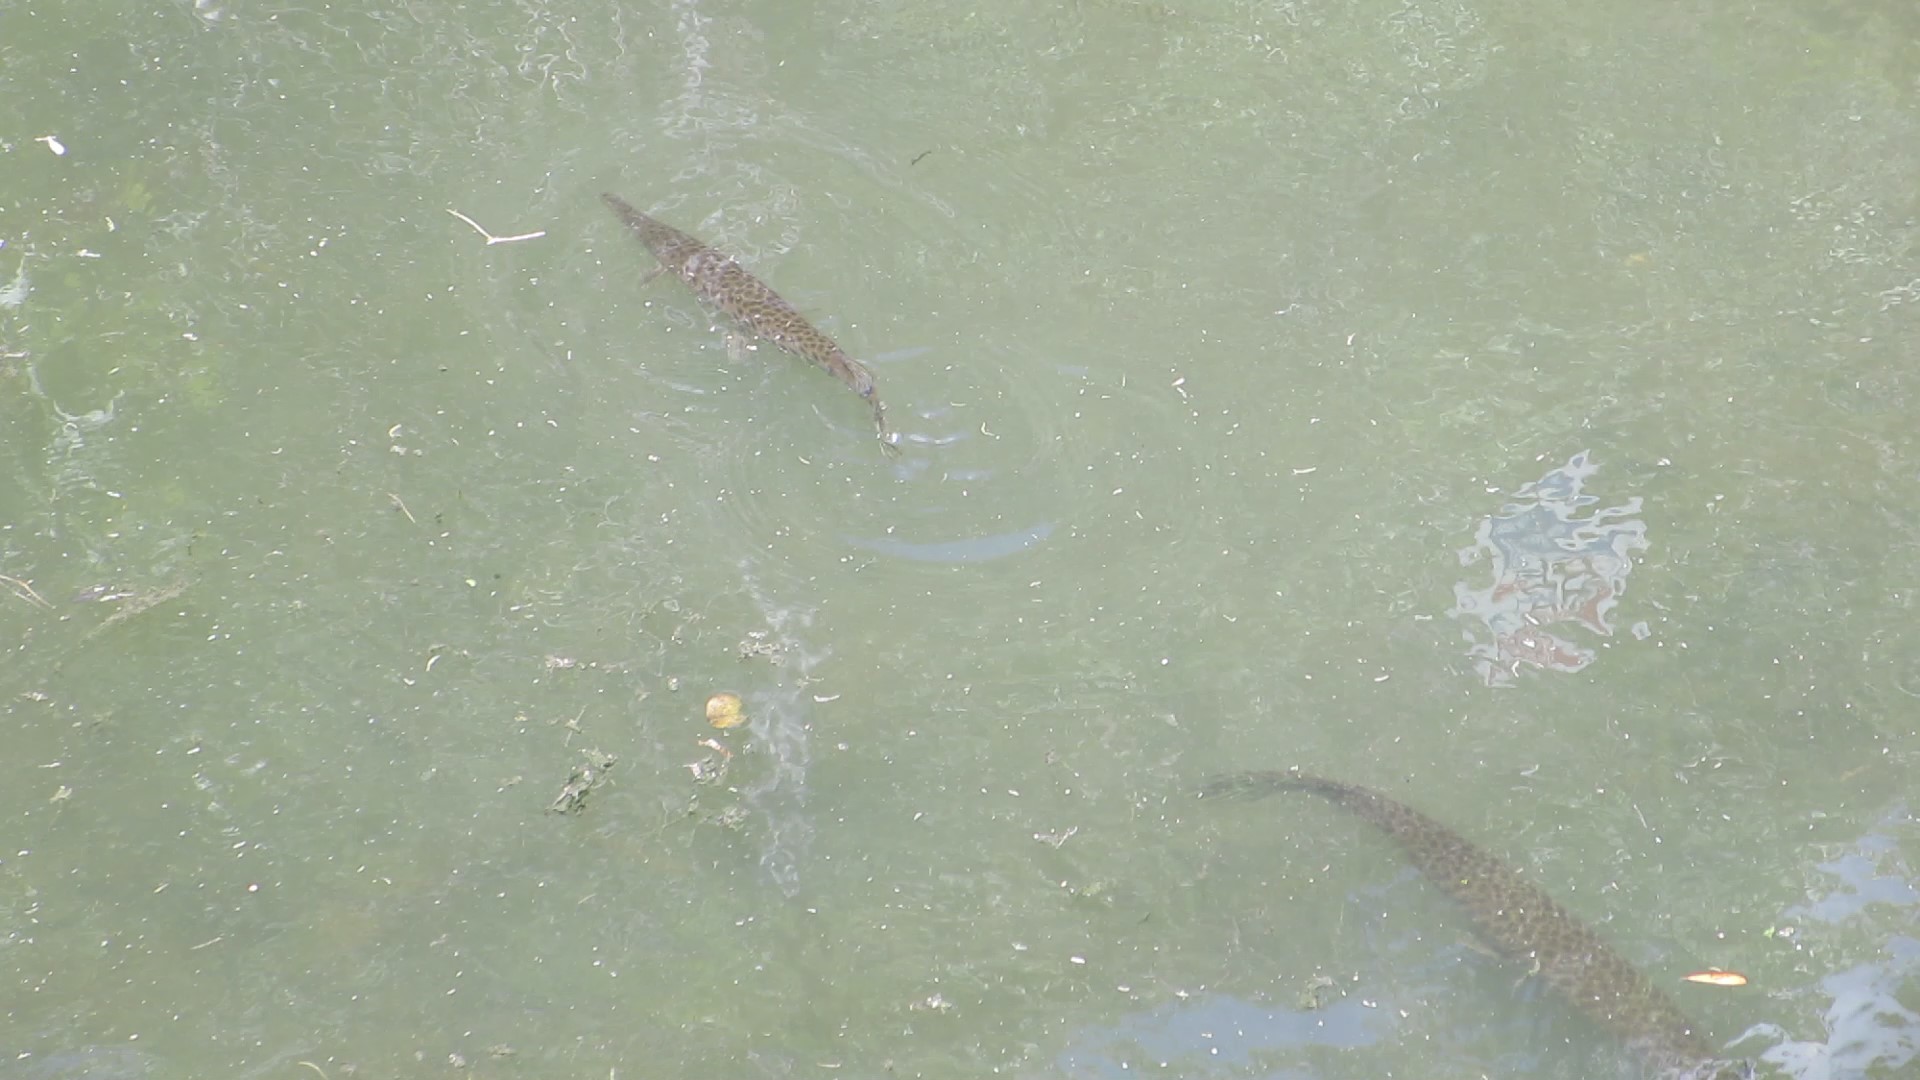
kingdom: Animalia
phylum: Chordata
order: Lepisosteiformes
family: Lepisosteidae
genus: Lepisosteus
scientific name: Lepisosteus platyrhincus
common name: Florida gar
